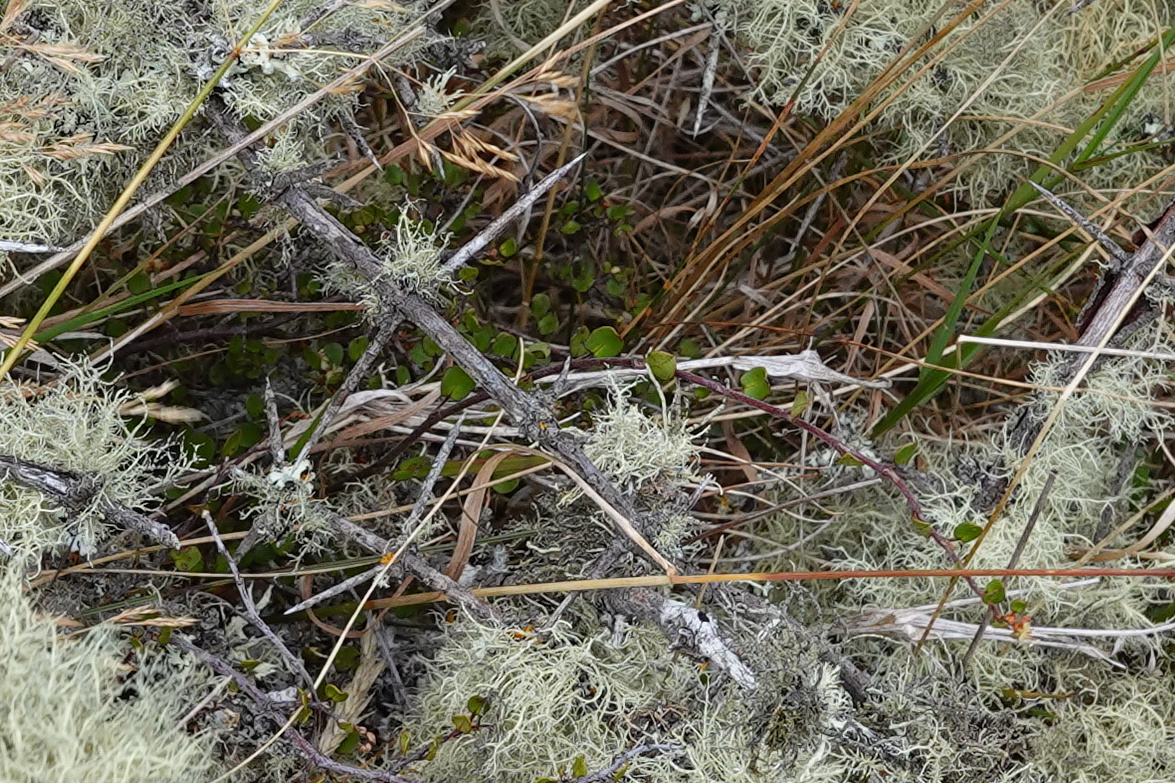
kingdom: Plantae
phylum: Tracheophyta
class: Magnoliopsida
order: Caryophyllales
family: Polygonaceae
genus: Muehlenbeckia
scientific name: Muehlenbeckia complexa
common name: Wireplant
